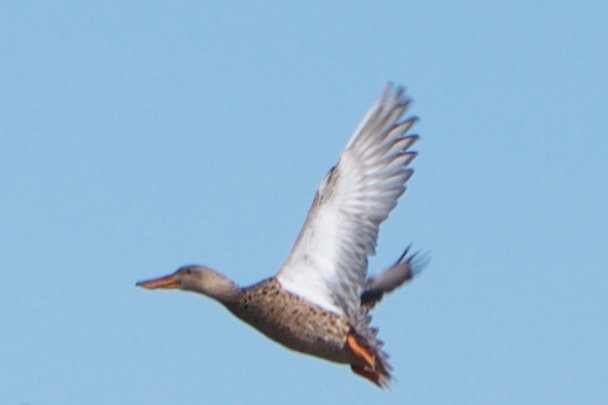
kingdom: Animalia
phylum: Chordata
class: Aves
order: Anseriformes
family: Anatidae
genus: Spatula
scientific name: Spatula clypeata
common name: Northern shoveler
